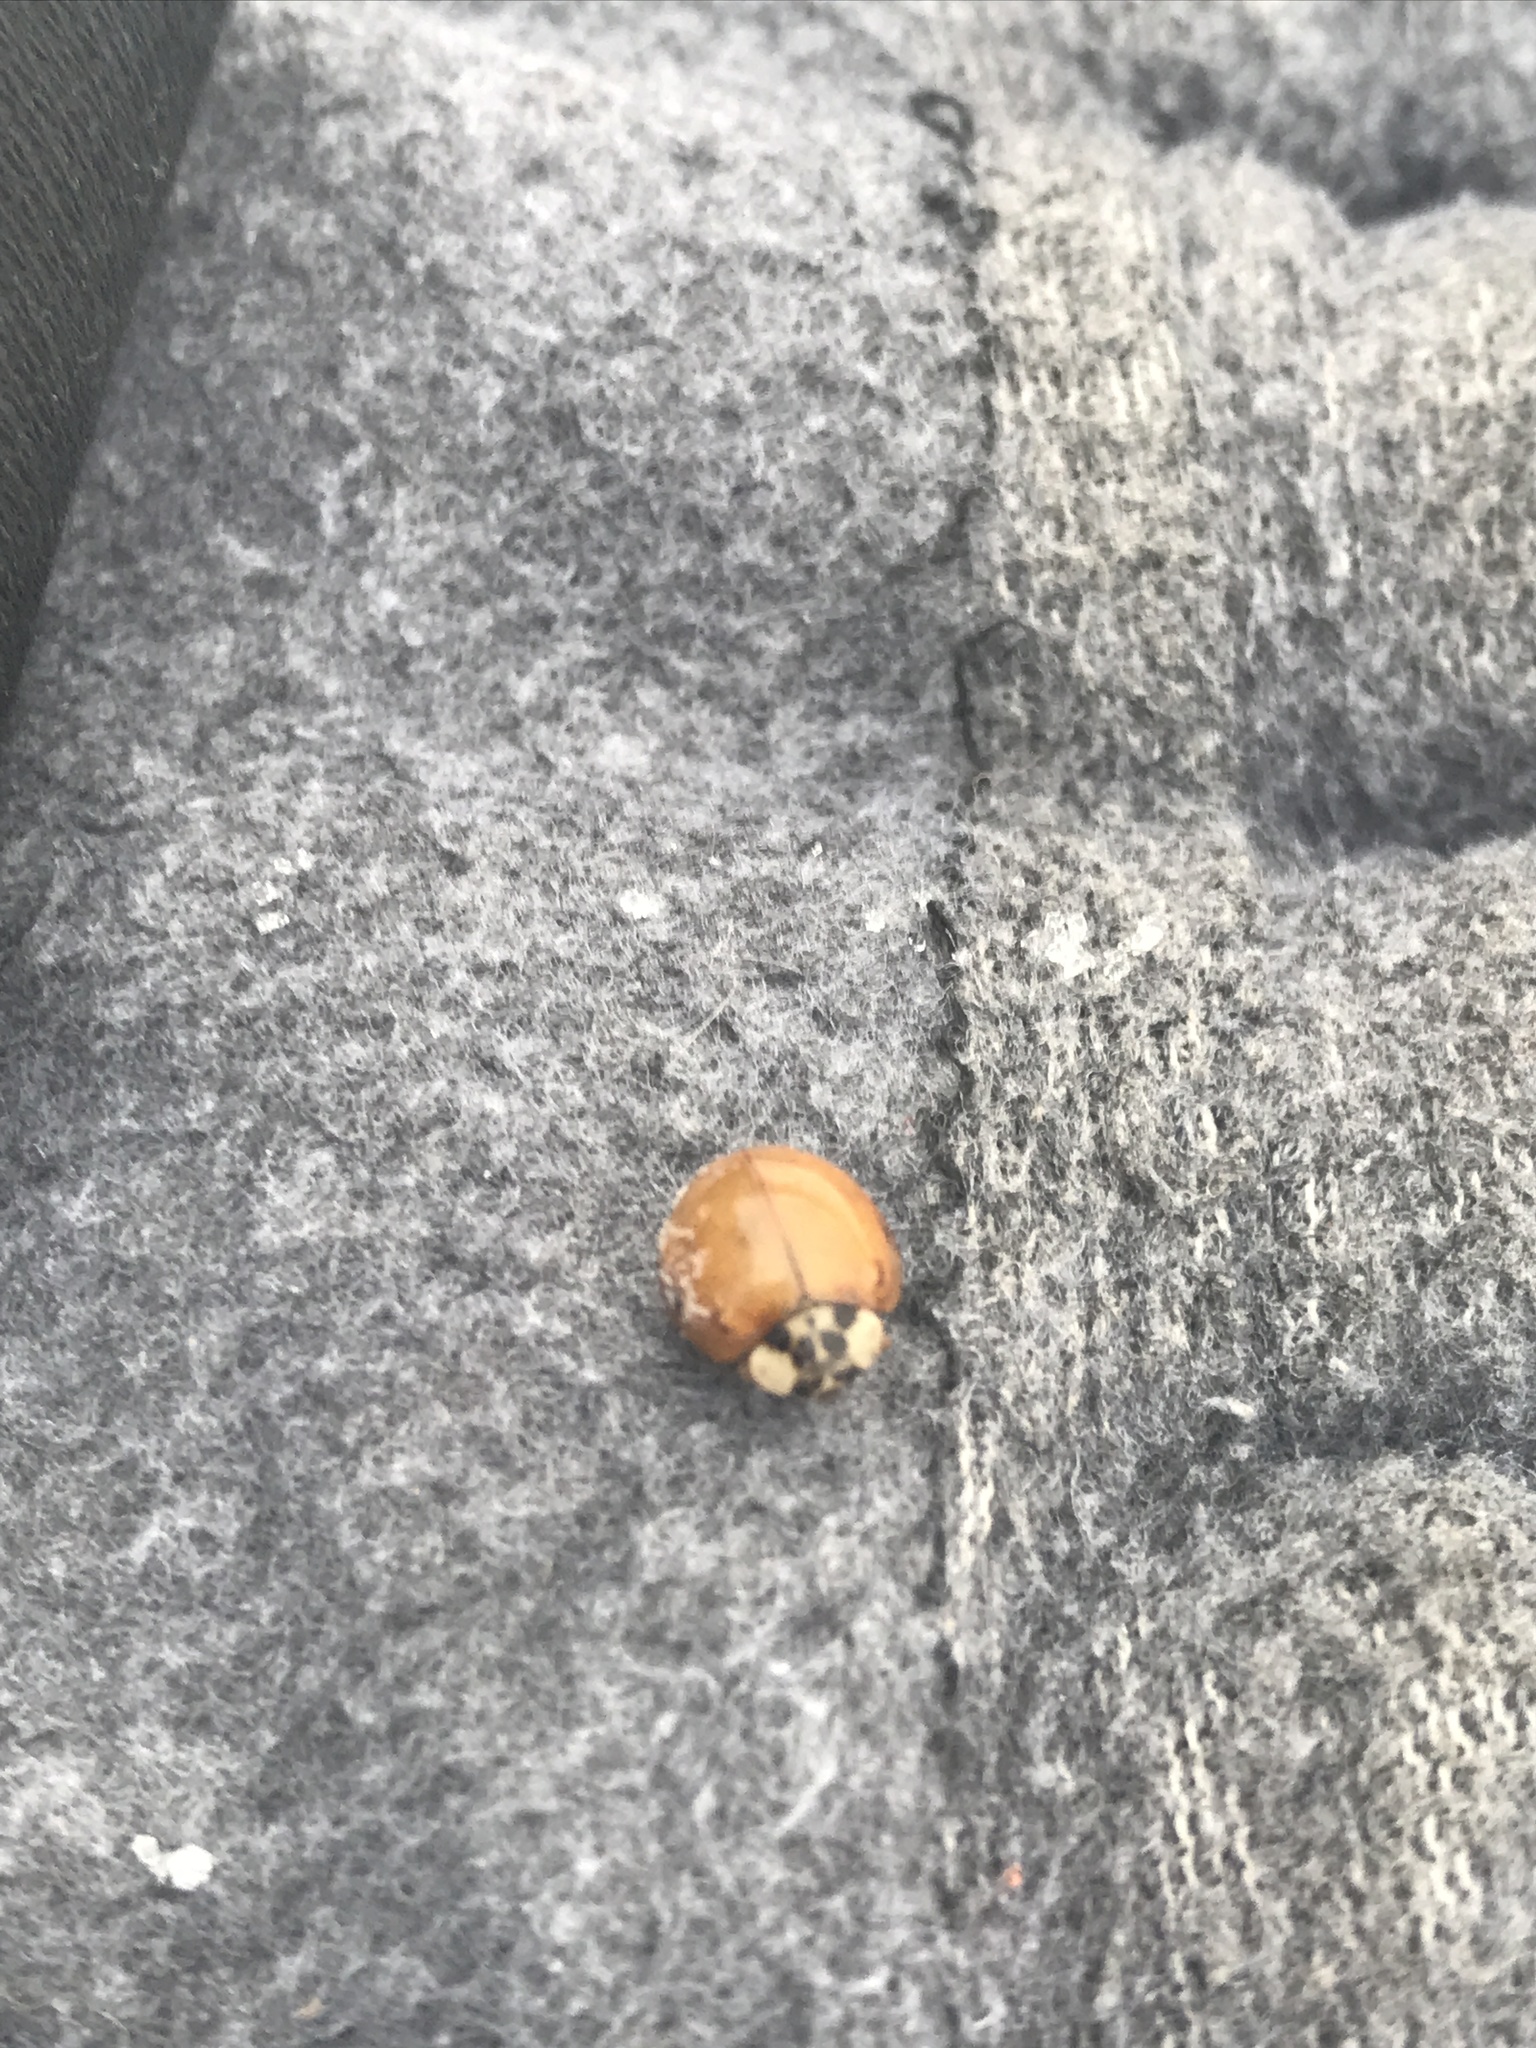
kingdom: Animalia
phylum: Arthropoda
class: Insecta
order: Coleoptera
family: Coccinellidae
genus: Harmonia
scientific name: Harmonia axyridis
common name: Harlequin ladybird
